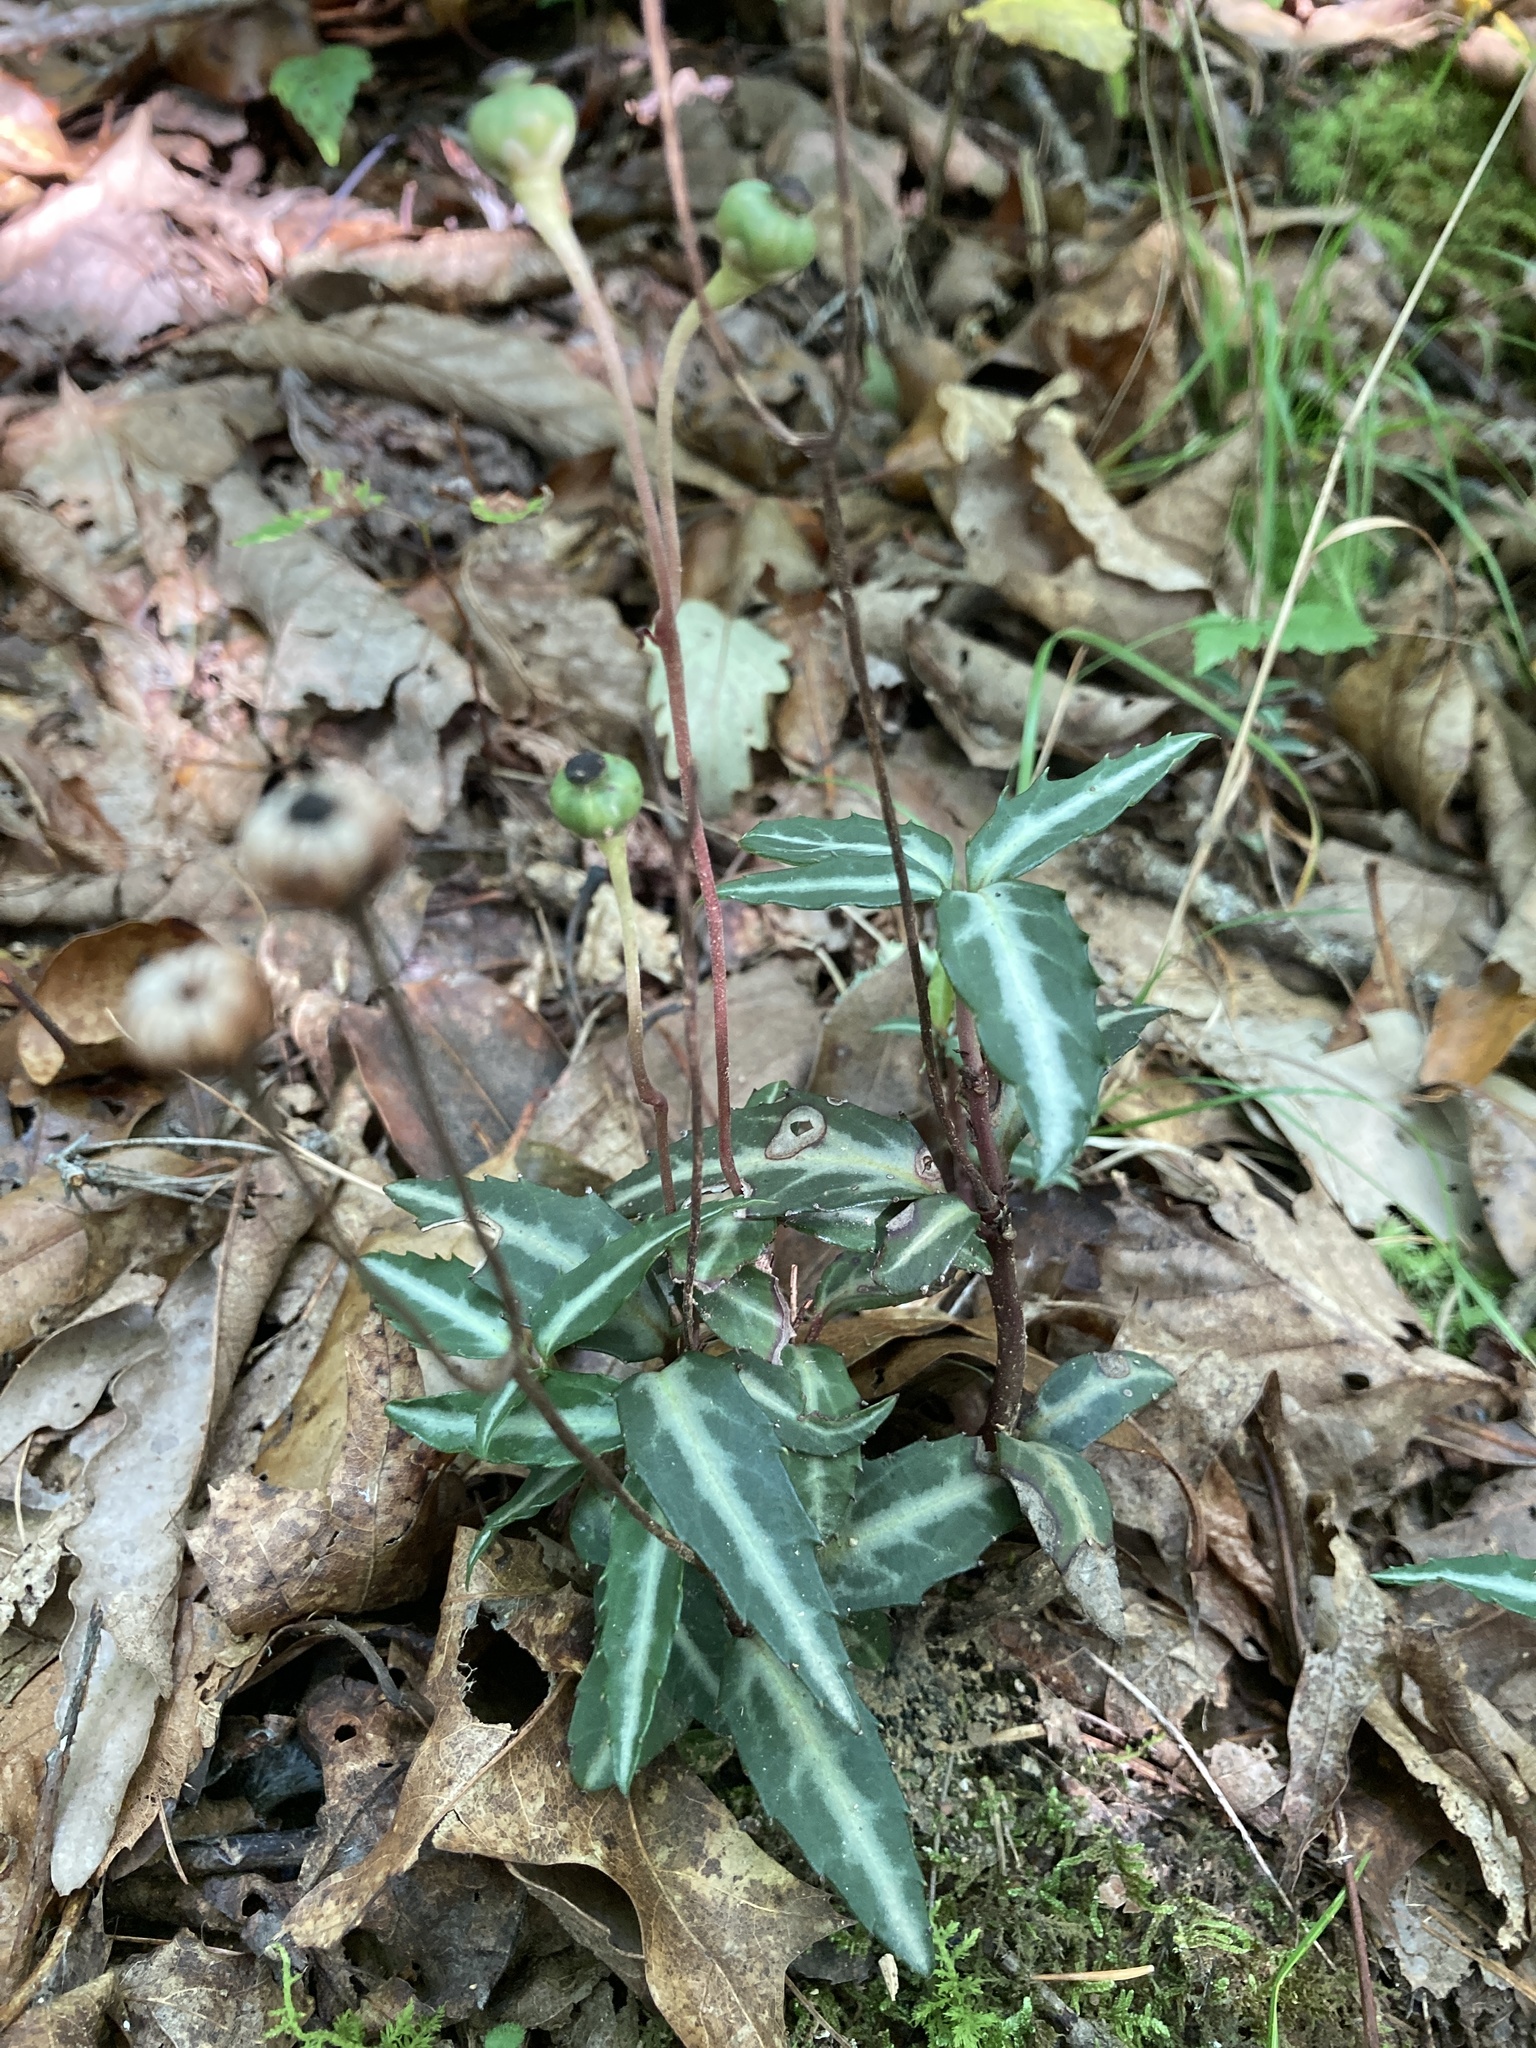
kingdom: Plantae
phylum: Tracheophyta
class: Magnoliopsida
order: Ericales
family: Ericaceae
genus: Chimaphila
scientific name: Chimaphila maculata
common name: Spotted pipsissewa
